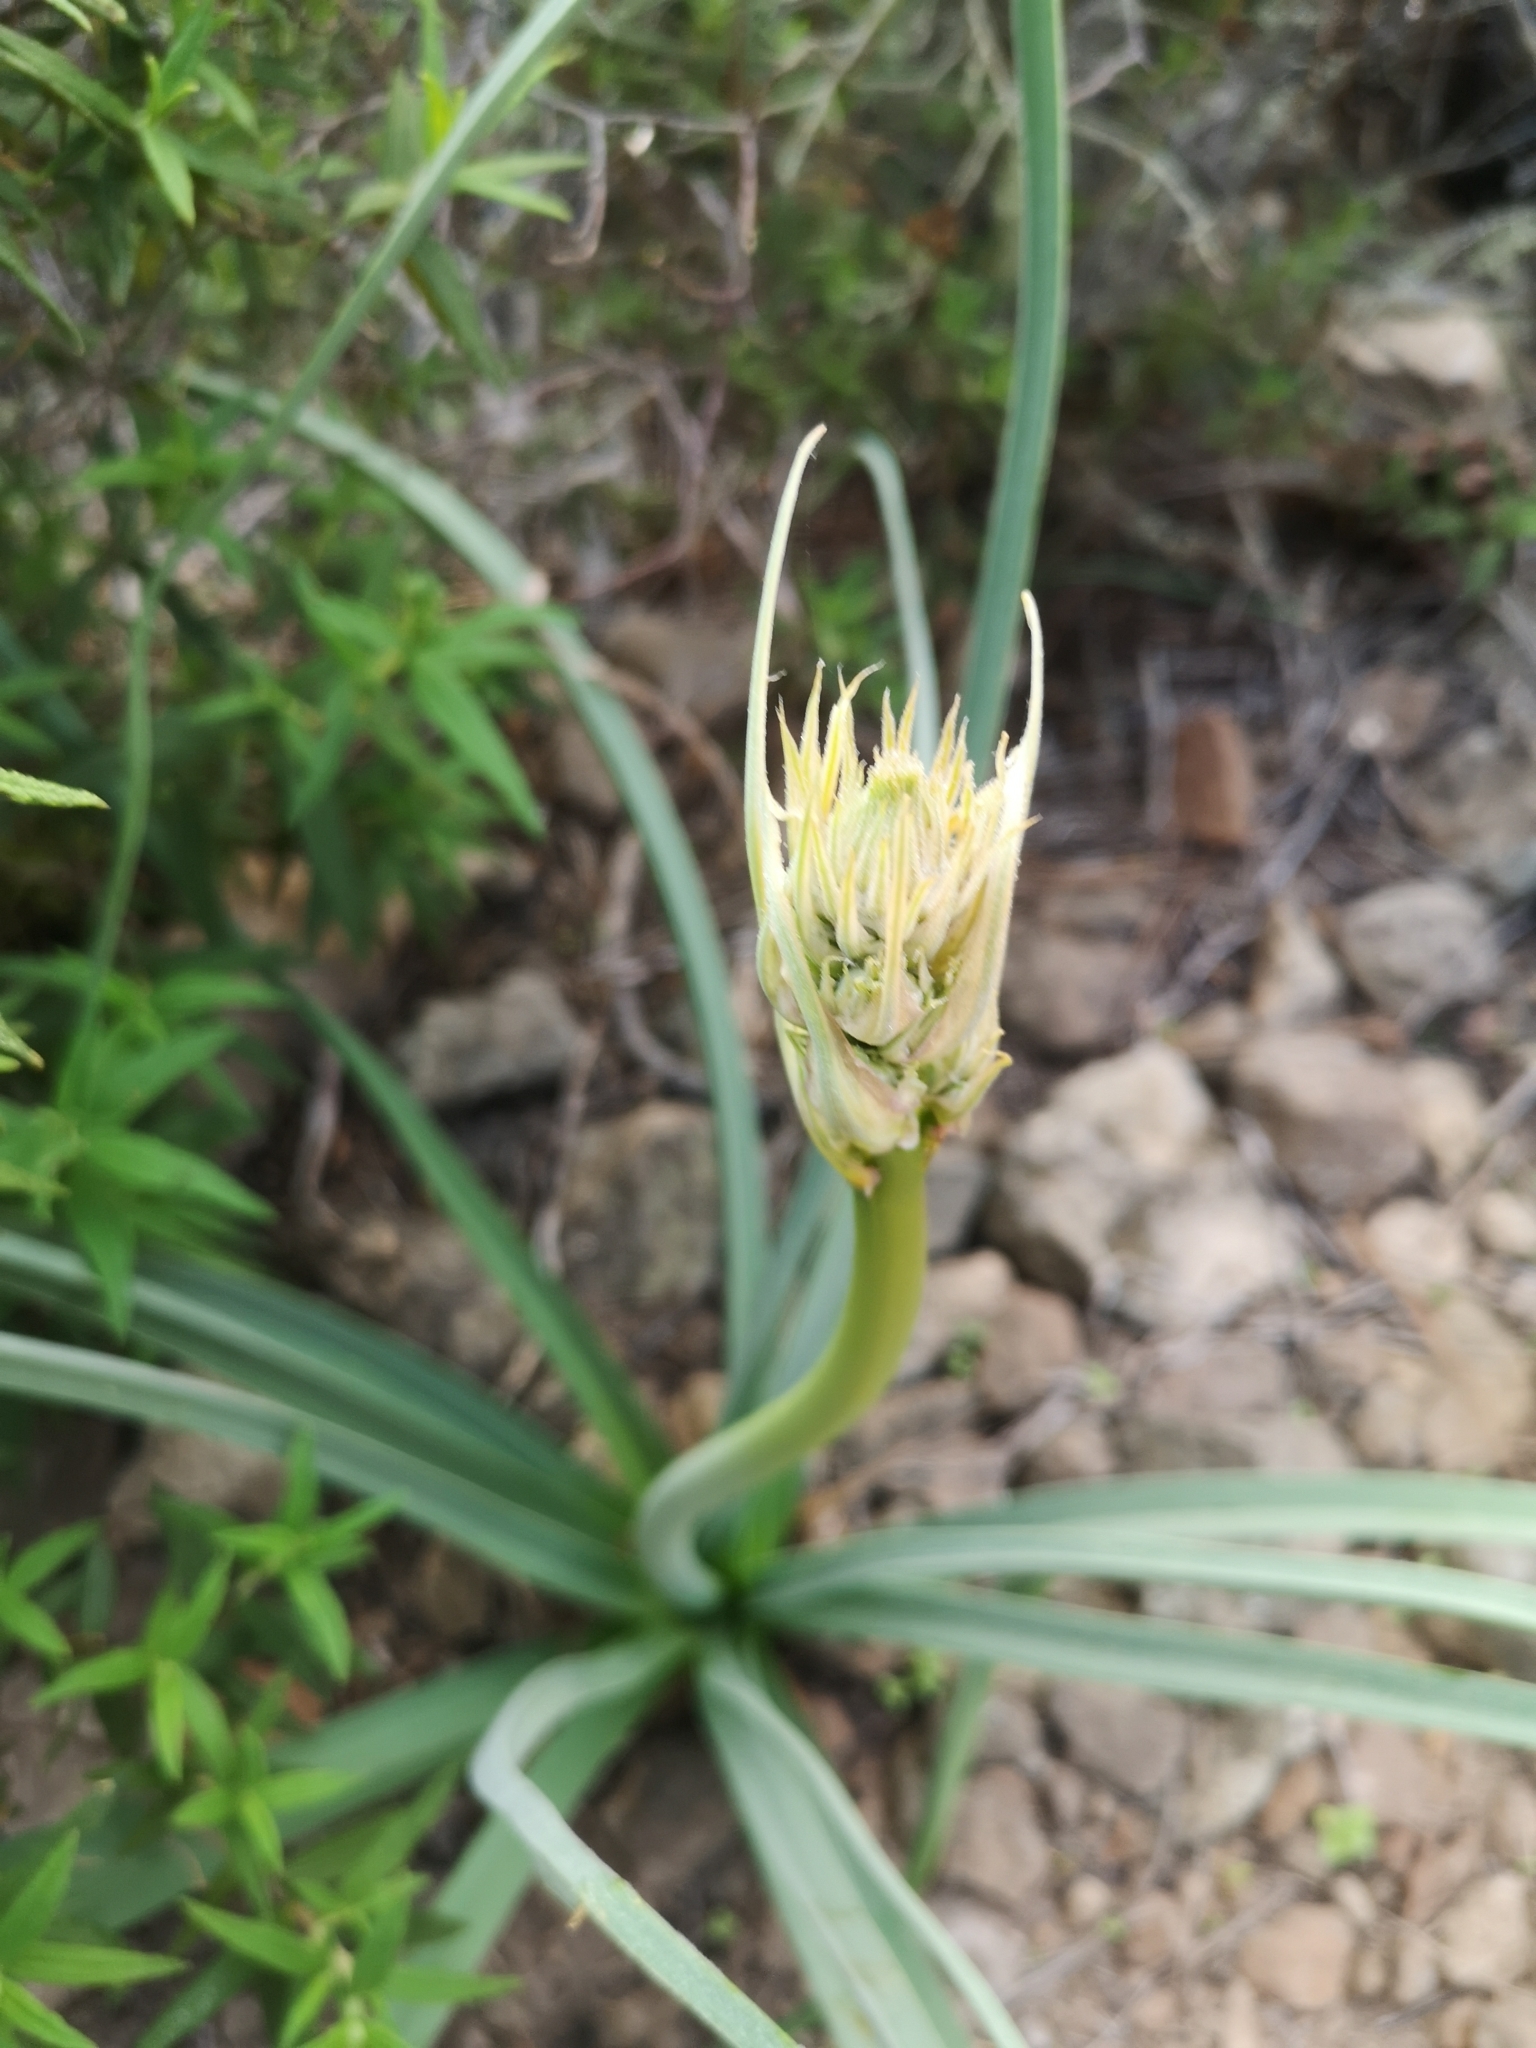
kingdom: Plantae
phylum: Tracheophyta
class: Liliopsida
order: Asparagales
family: Asphodelaceae
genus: Asphodelus
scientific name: Asphodelus ramosus
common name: Silverrod
